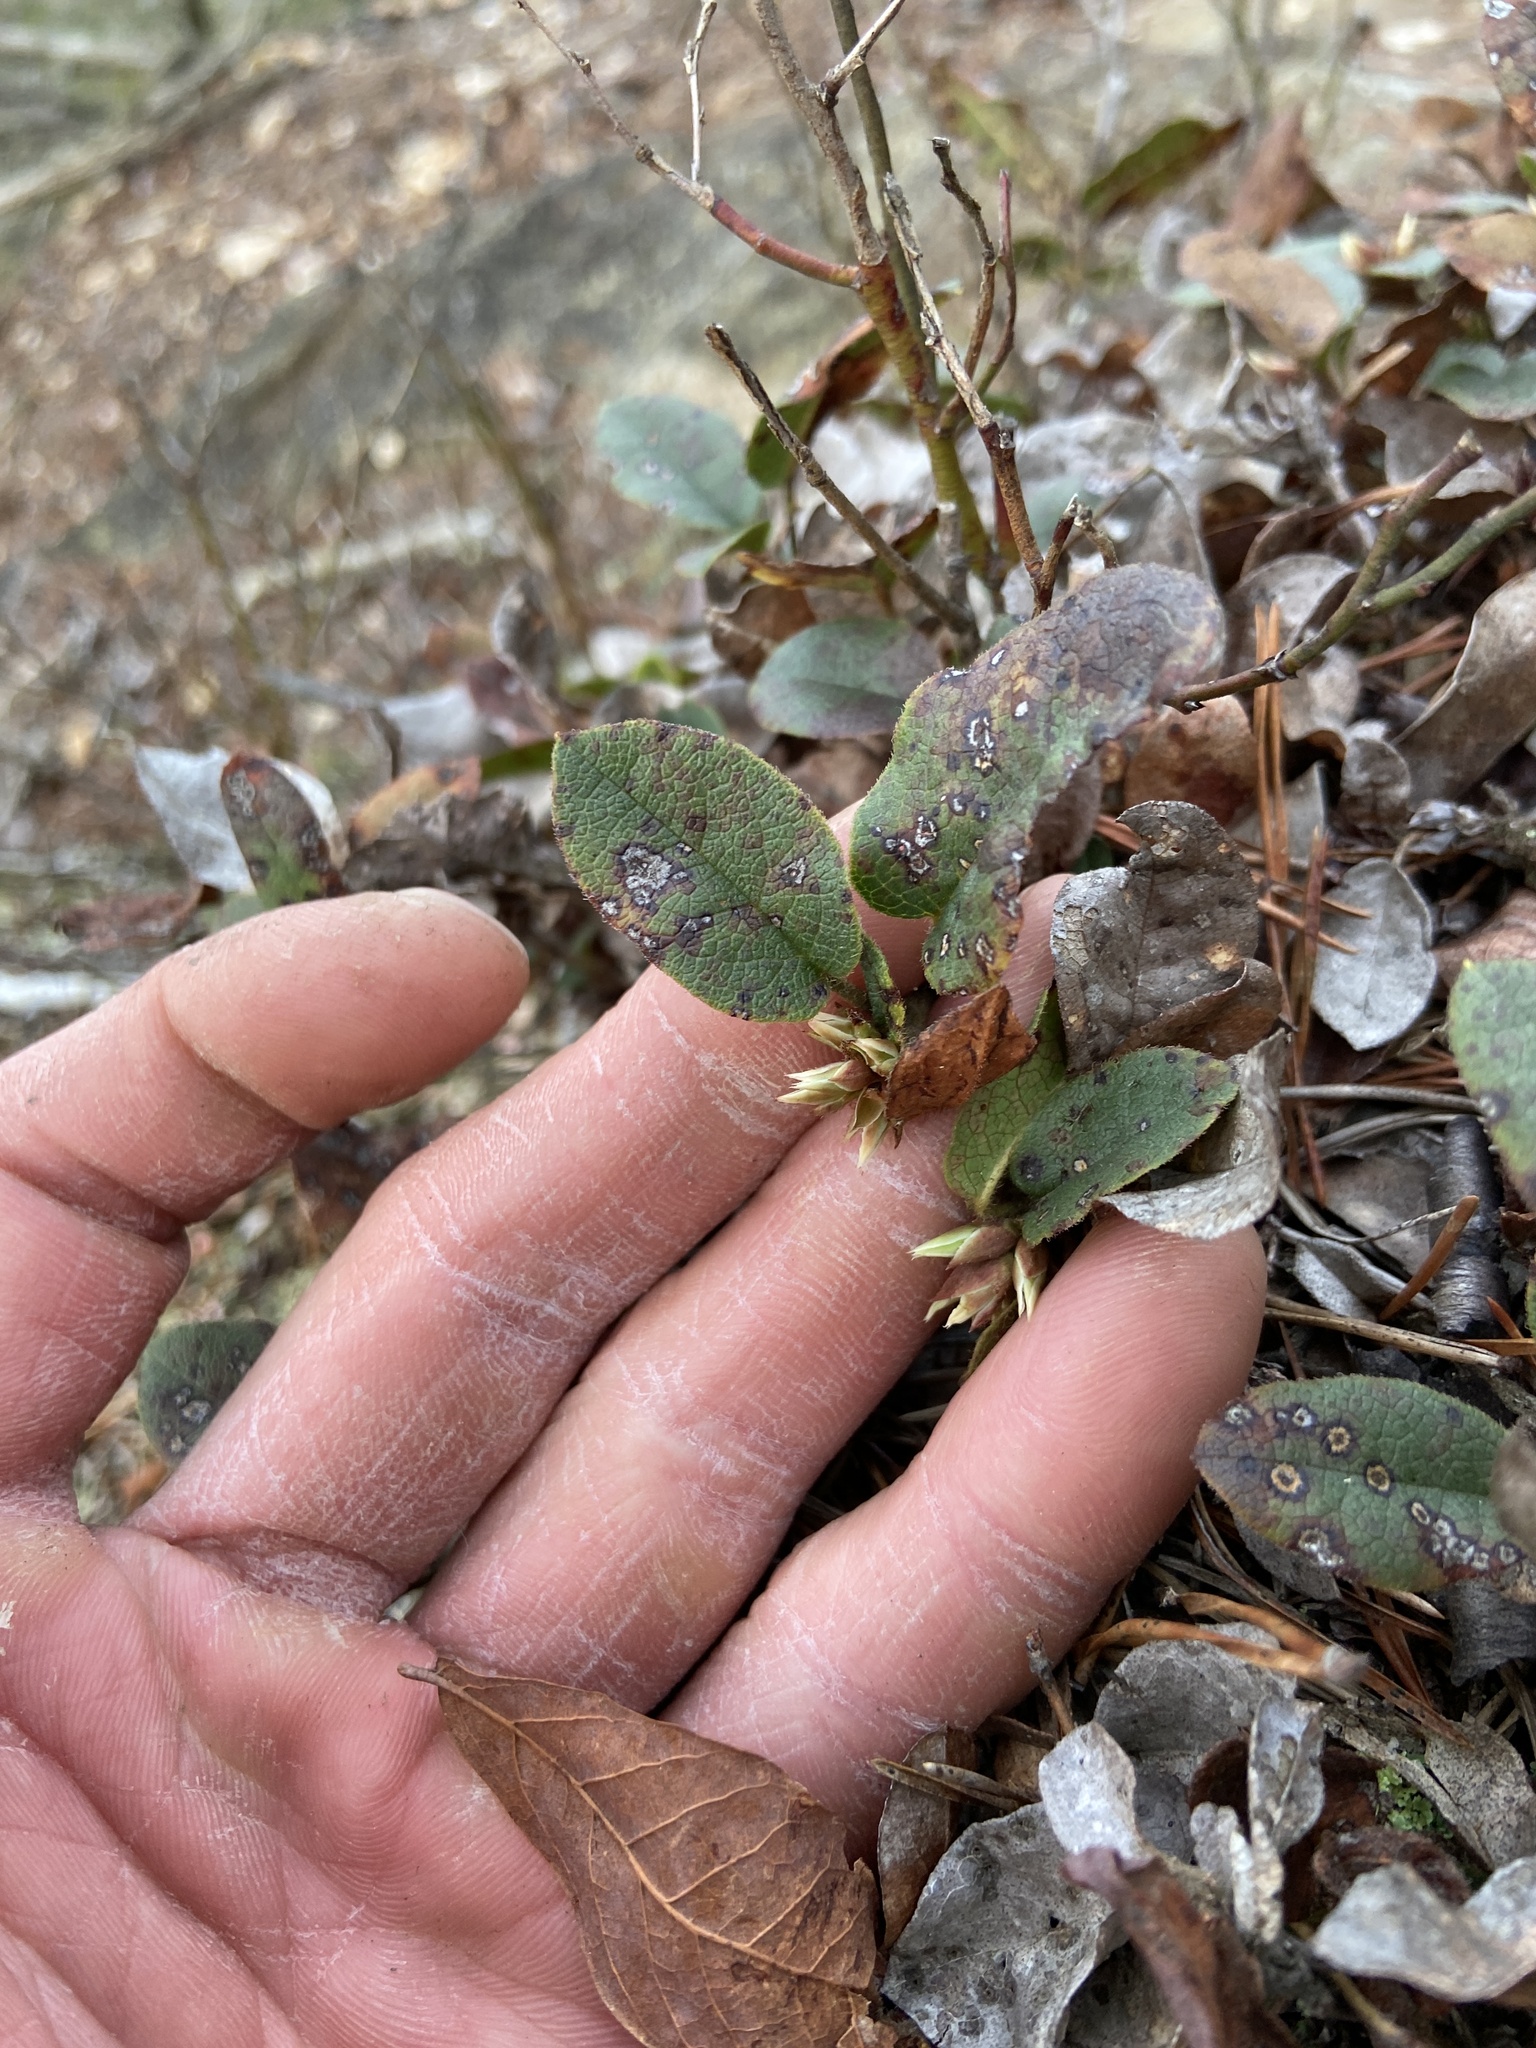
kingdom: Plantae
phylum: Tracheophyta
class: Magnoliopsida
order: Ericales
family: Ericaceae
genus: Epigaea
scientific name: Epigaea repens
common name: Gravelroot
